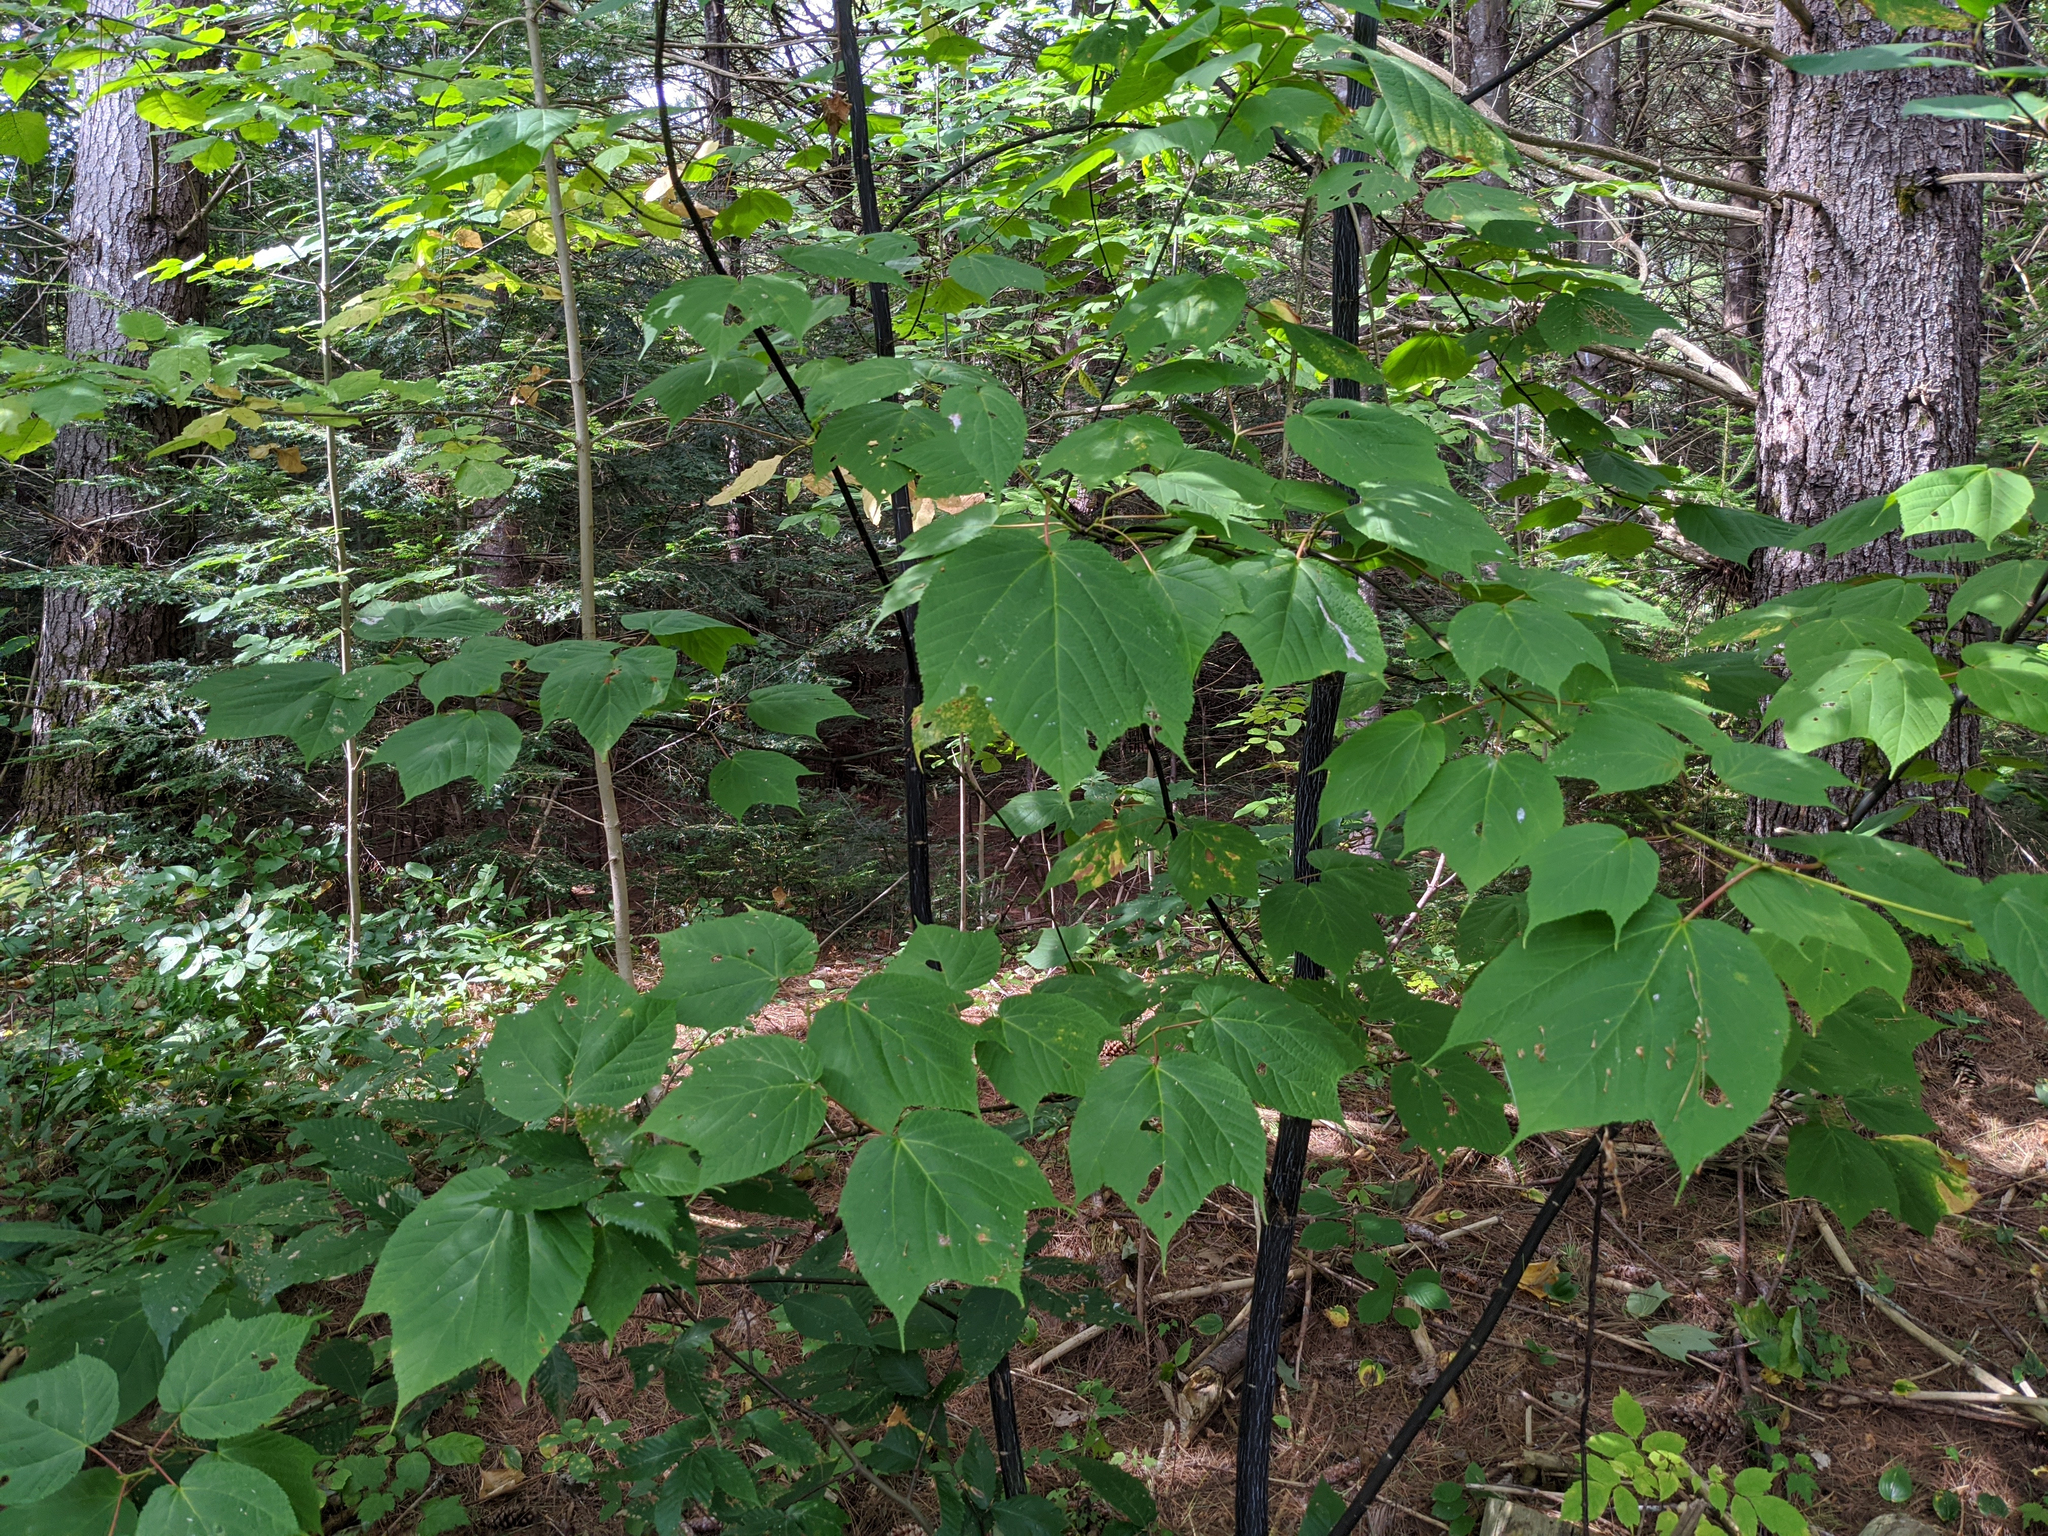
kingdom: Plantae
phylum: Tracheophyta
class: Magnoliopsida
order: Sapindales
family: Sapindaceae
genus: Acer
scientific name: Acer pensylvanicum
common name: Moosewood
